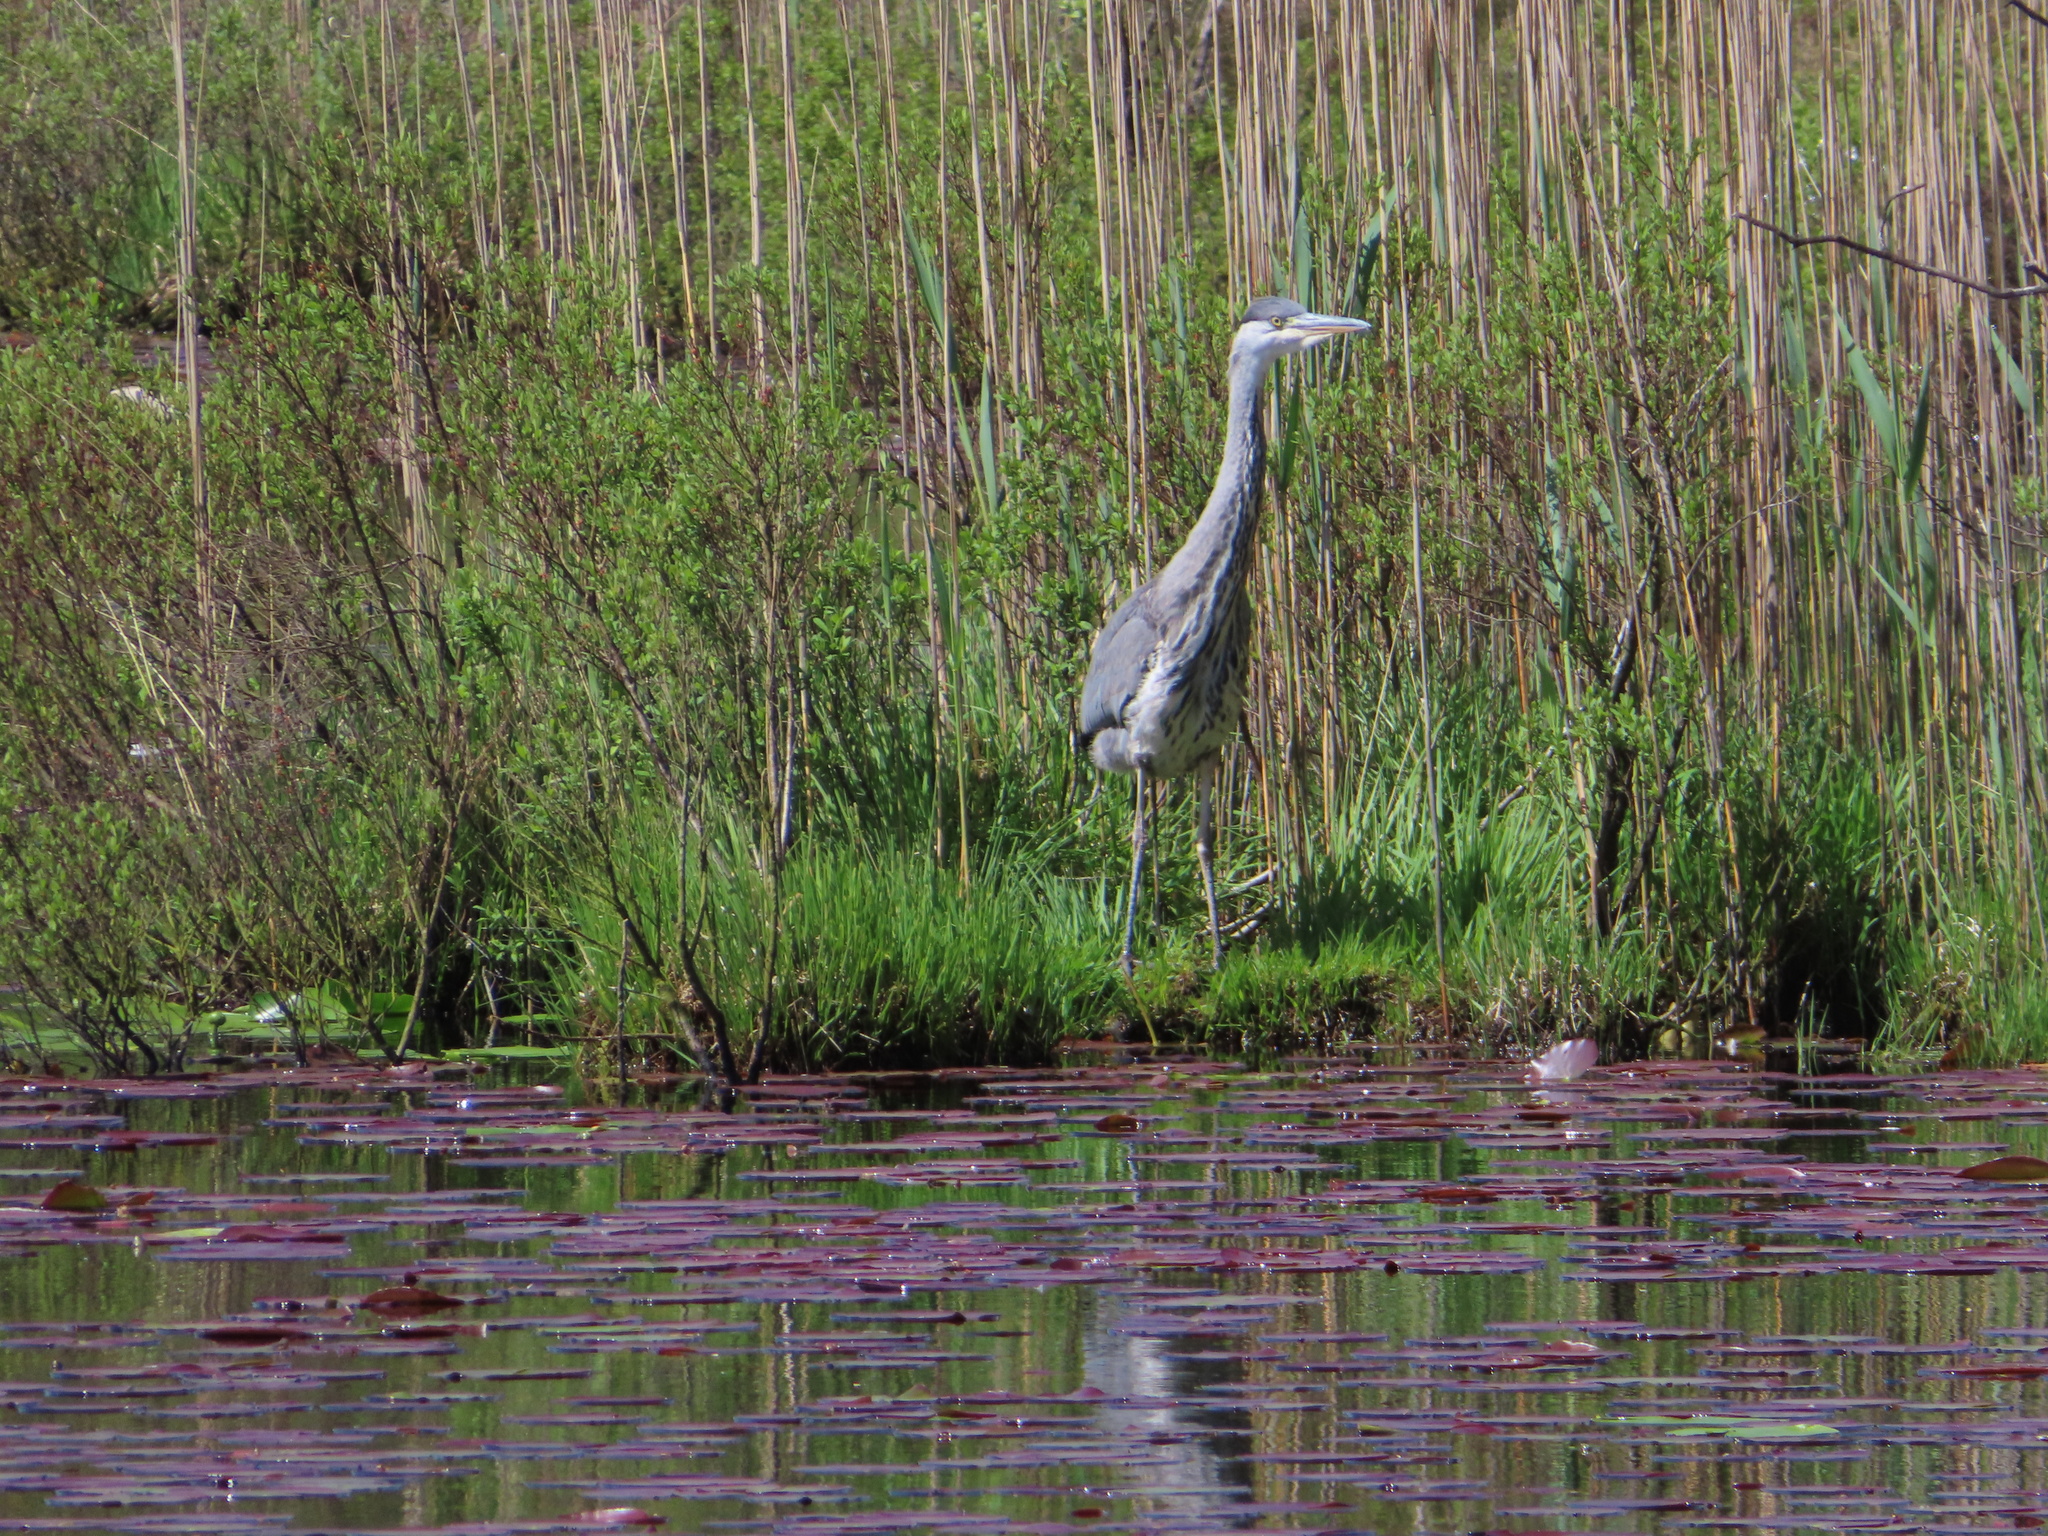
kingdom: Animalia
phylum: Chordata
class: Aves
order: Pelecaniformes
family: Ardeidae
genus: Ardea
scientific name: Ardea cinerea
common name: Grey heron
